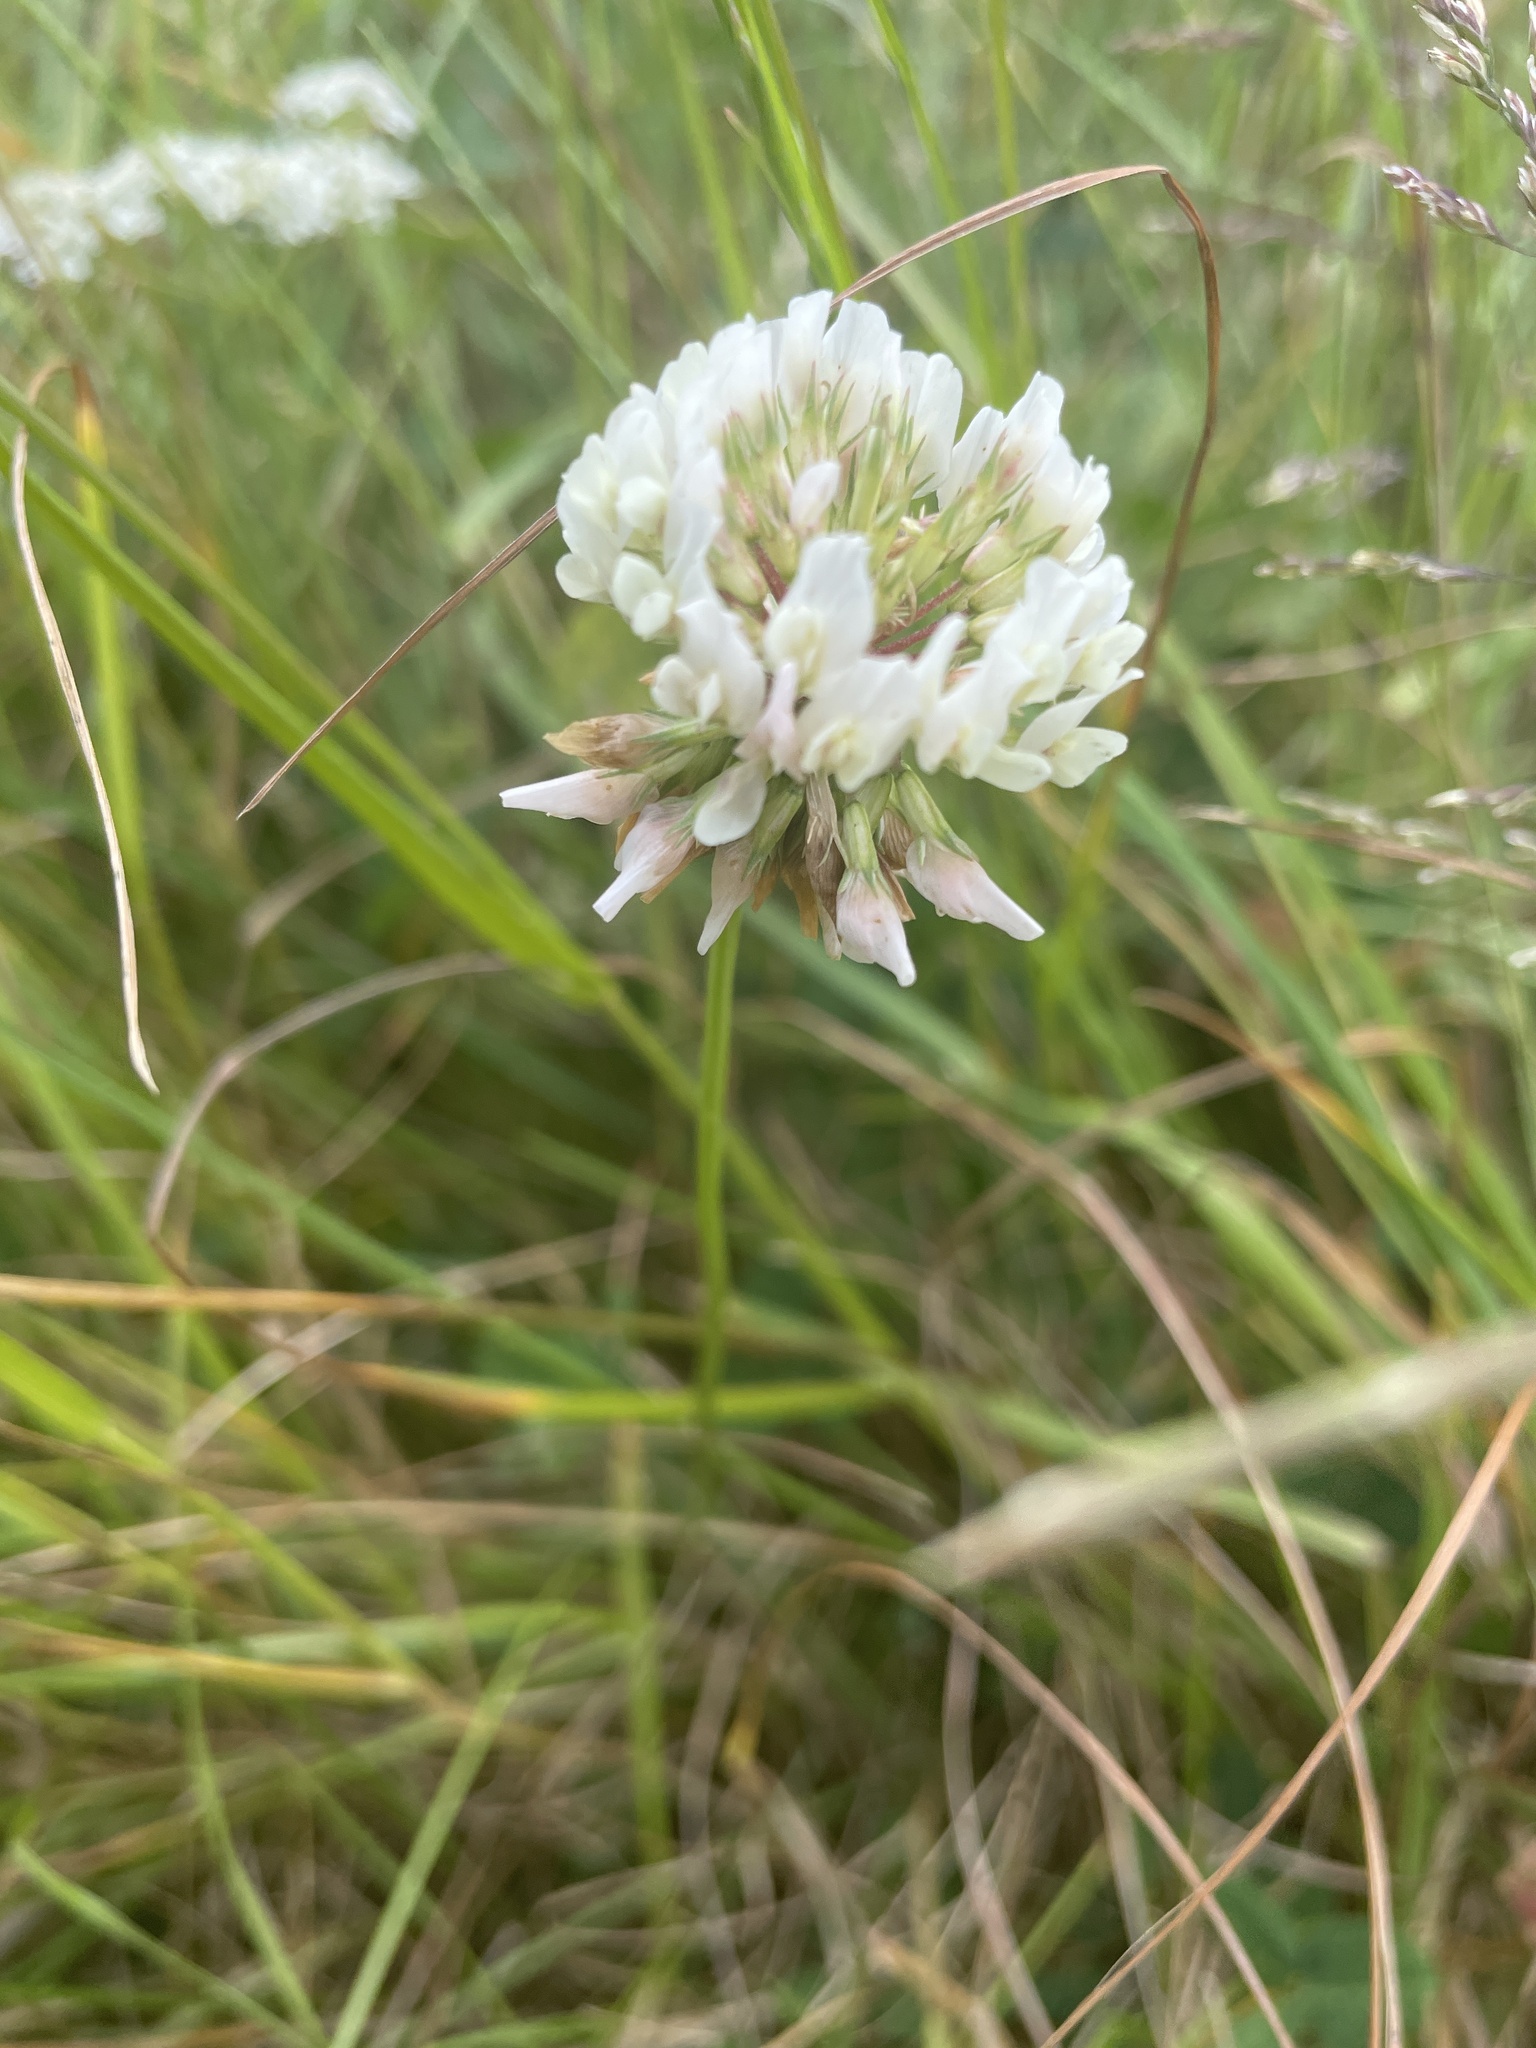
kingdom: Plantae
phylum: Tracheophyta
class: Magnoliopsida
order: Fabales
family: Fabaceae
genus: Trifolium
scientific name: Trifolium repens
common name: White clover
